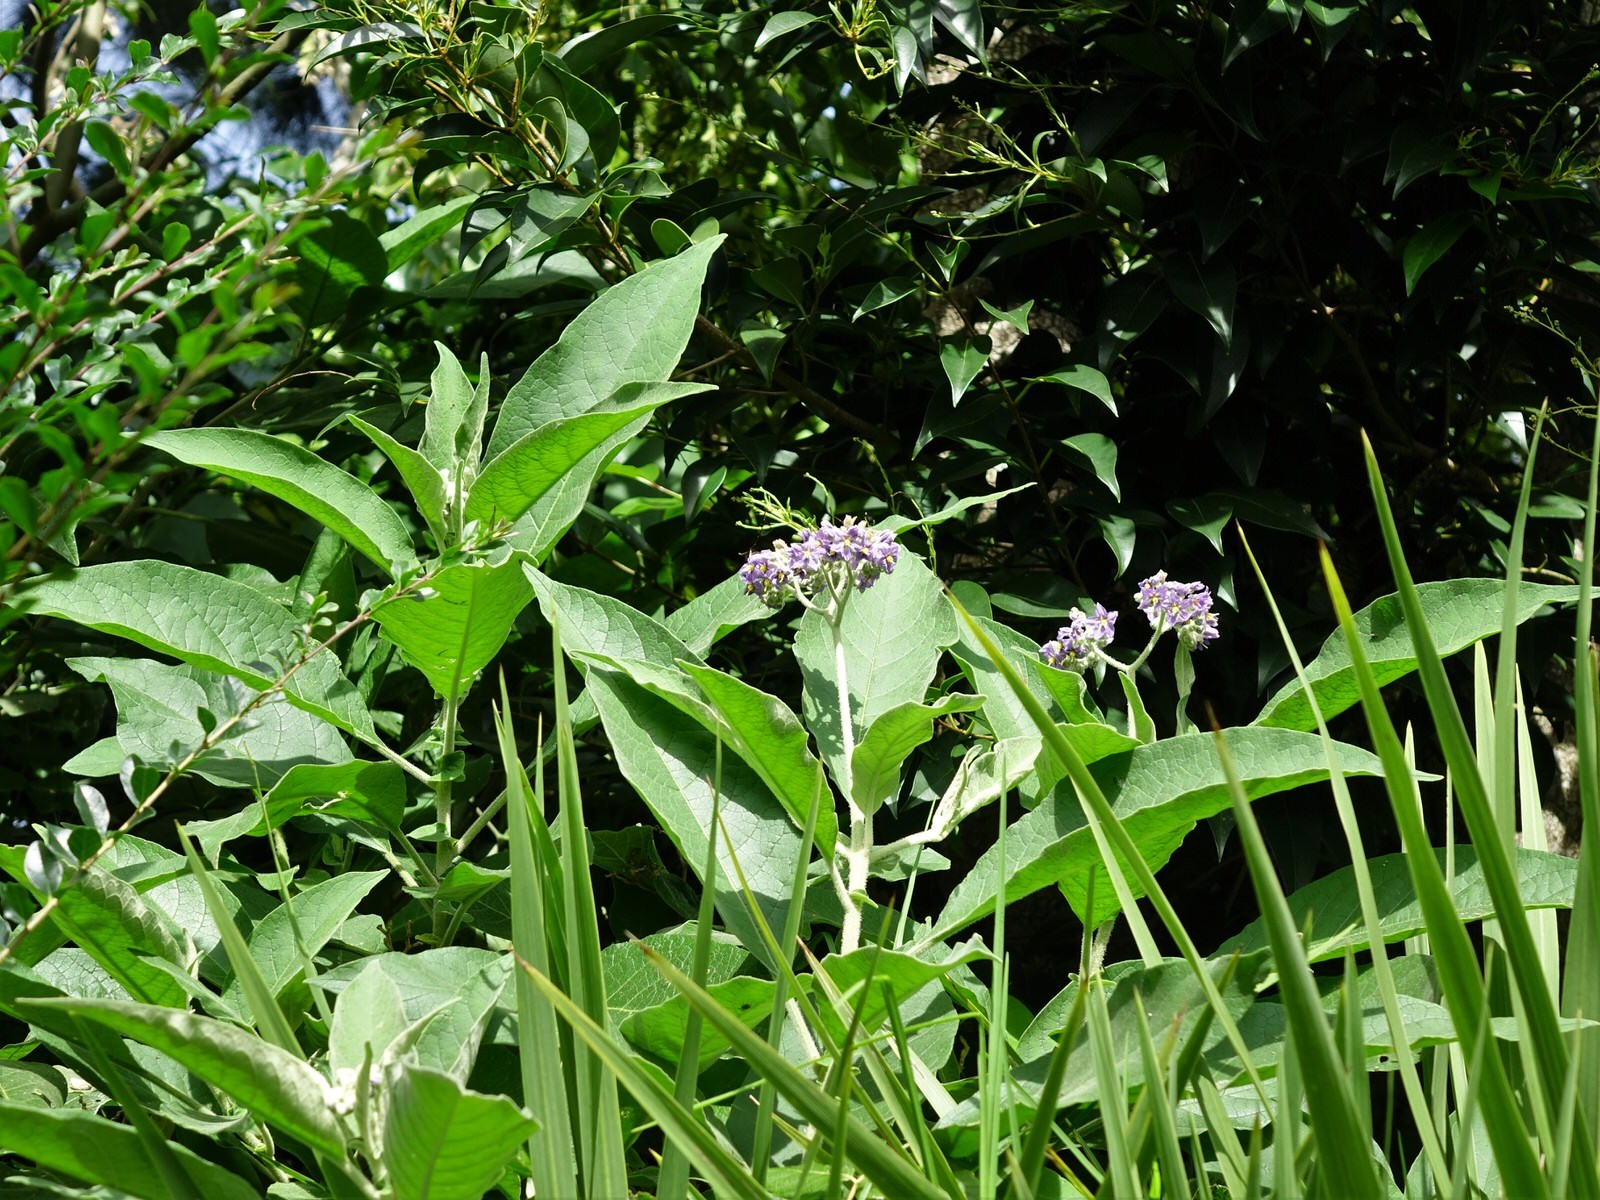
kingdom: Plantae
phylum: Tracheophyta
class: Magnoliopsida
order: Solanales
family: Solanaceae
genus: Solanum
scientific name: Solanum mauritianum
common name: Earleaf nightshade
